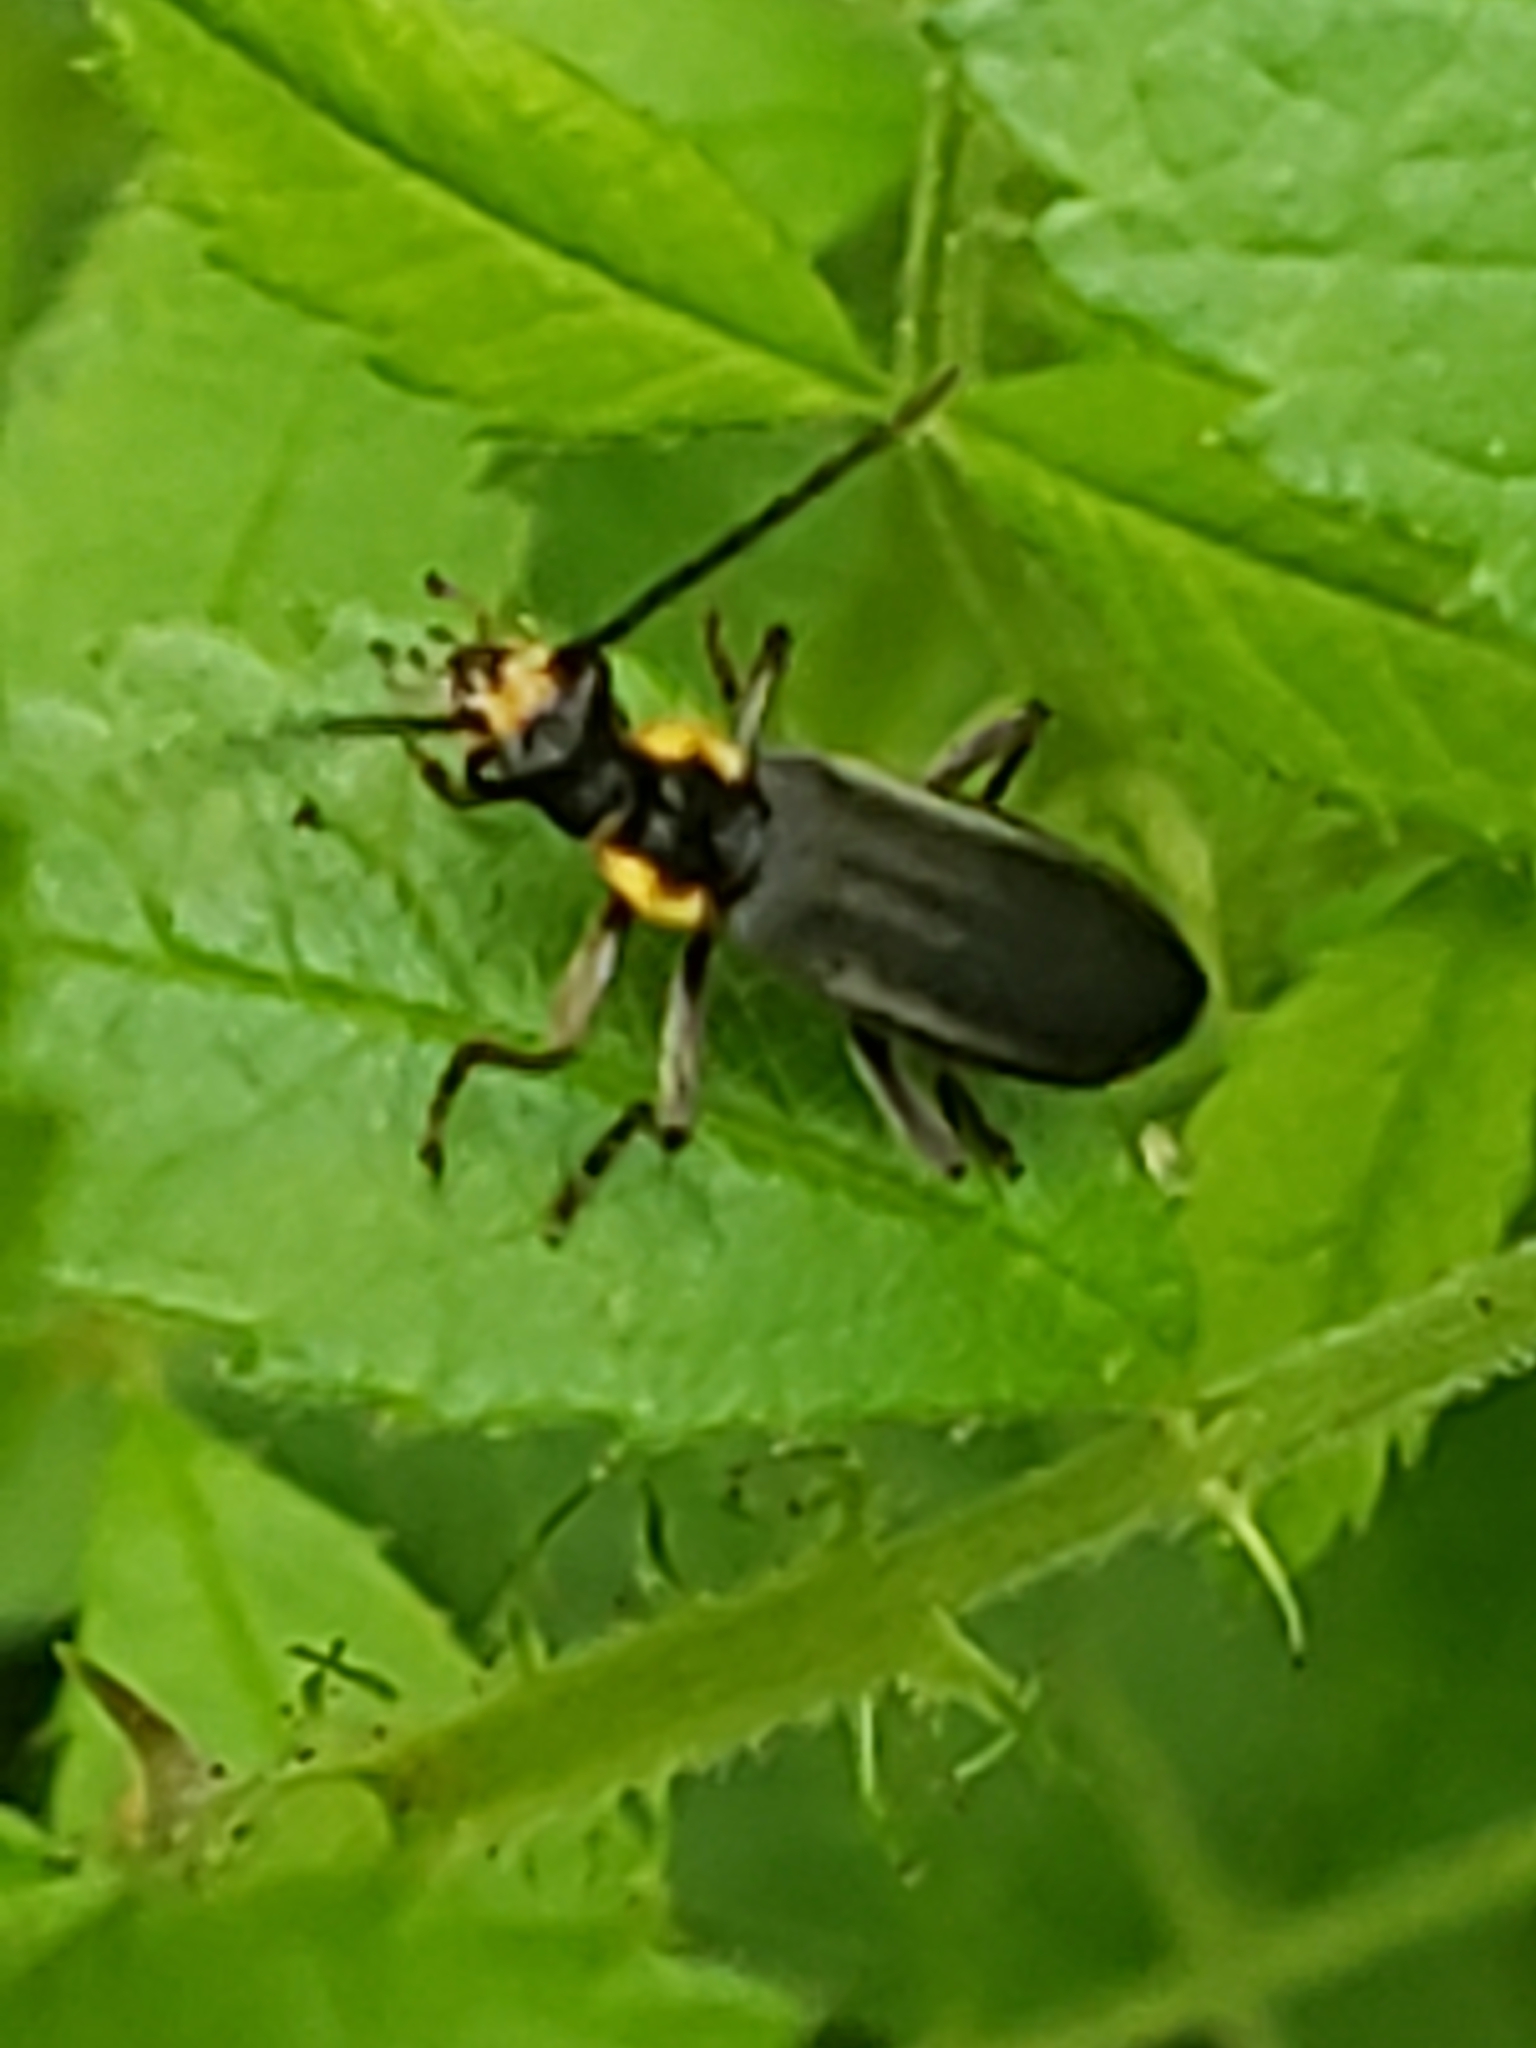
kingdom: Animalia
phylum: Arthropoda
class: Insecta
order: Coleoptera
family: Cantharidae
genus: Podabrus
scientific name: Podabrus rugosulus
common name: Wrinkled soldier beetle
